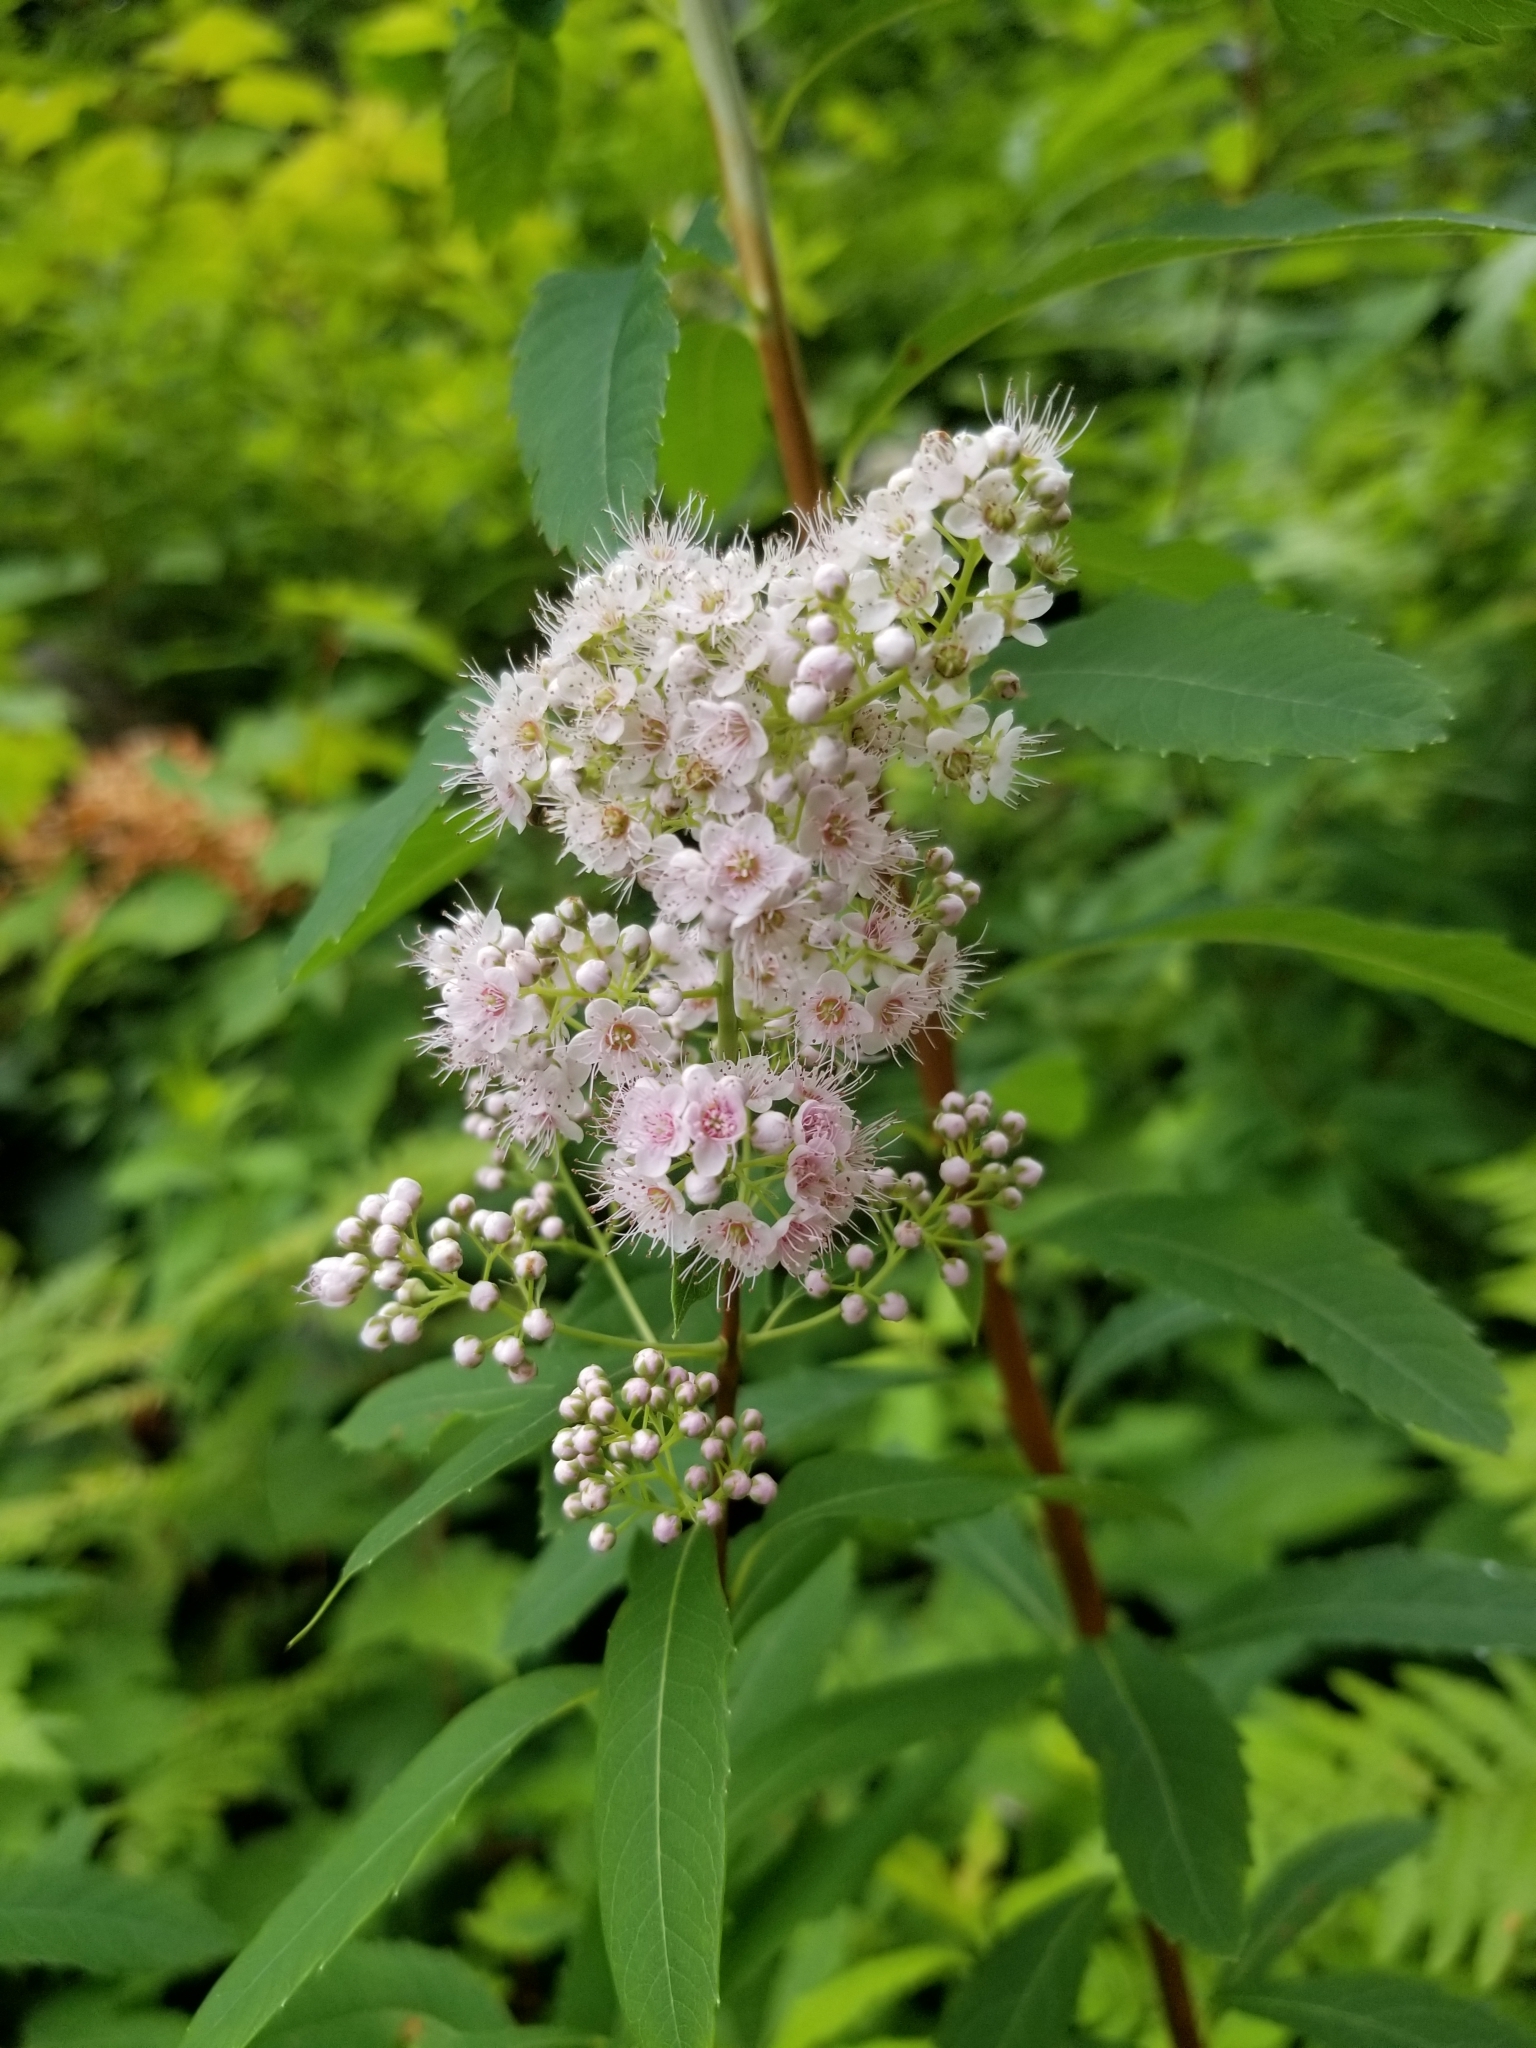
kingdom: Plantae
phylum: Tracheophyta
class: Magnoliopsida
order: Rosales
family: Rosaceae
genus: Spiraea
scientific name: Spiraea alba
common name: Pale bridewort
